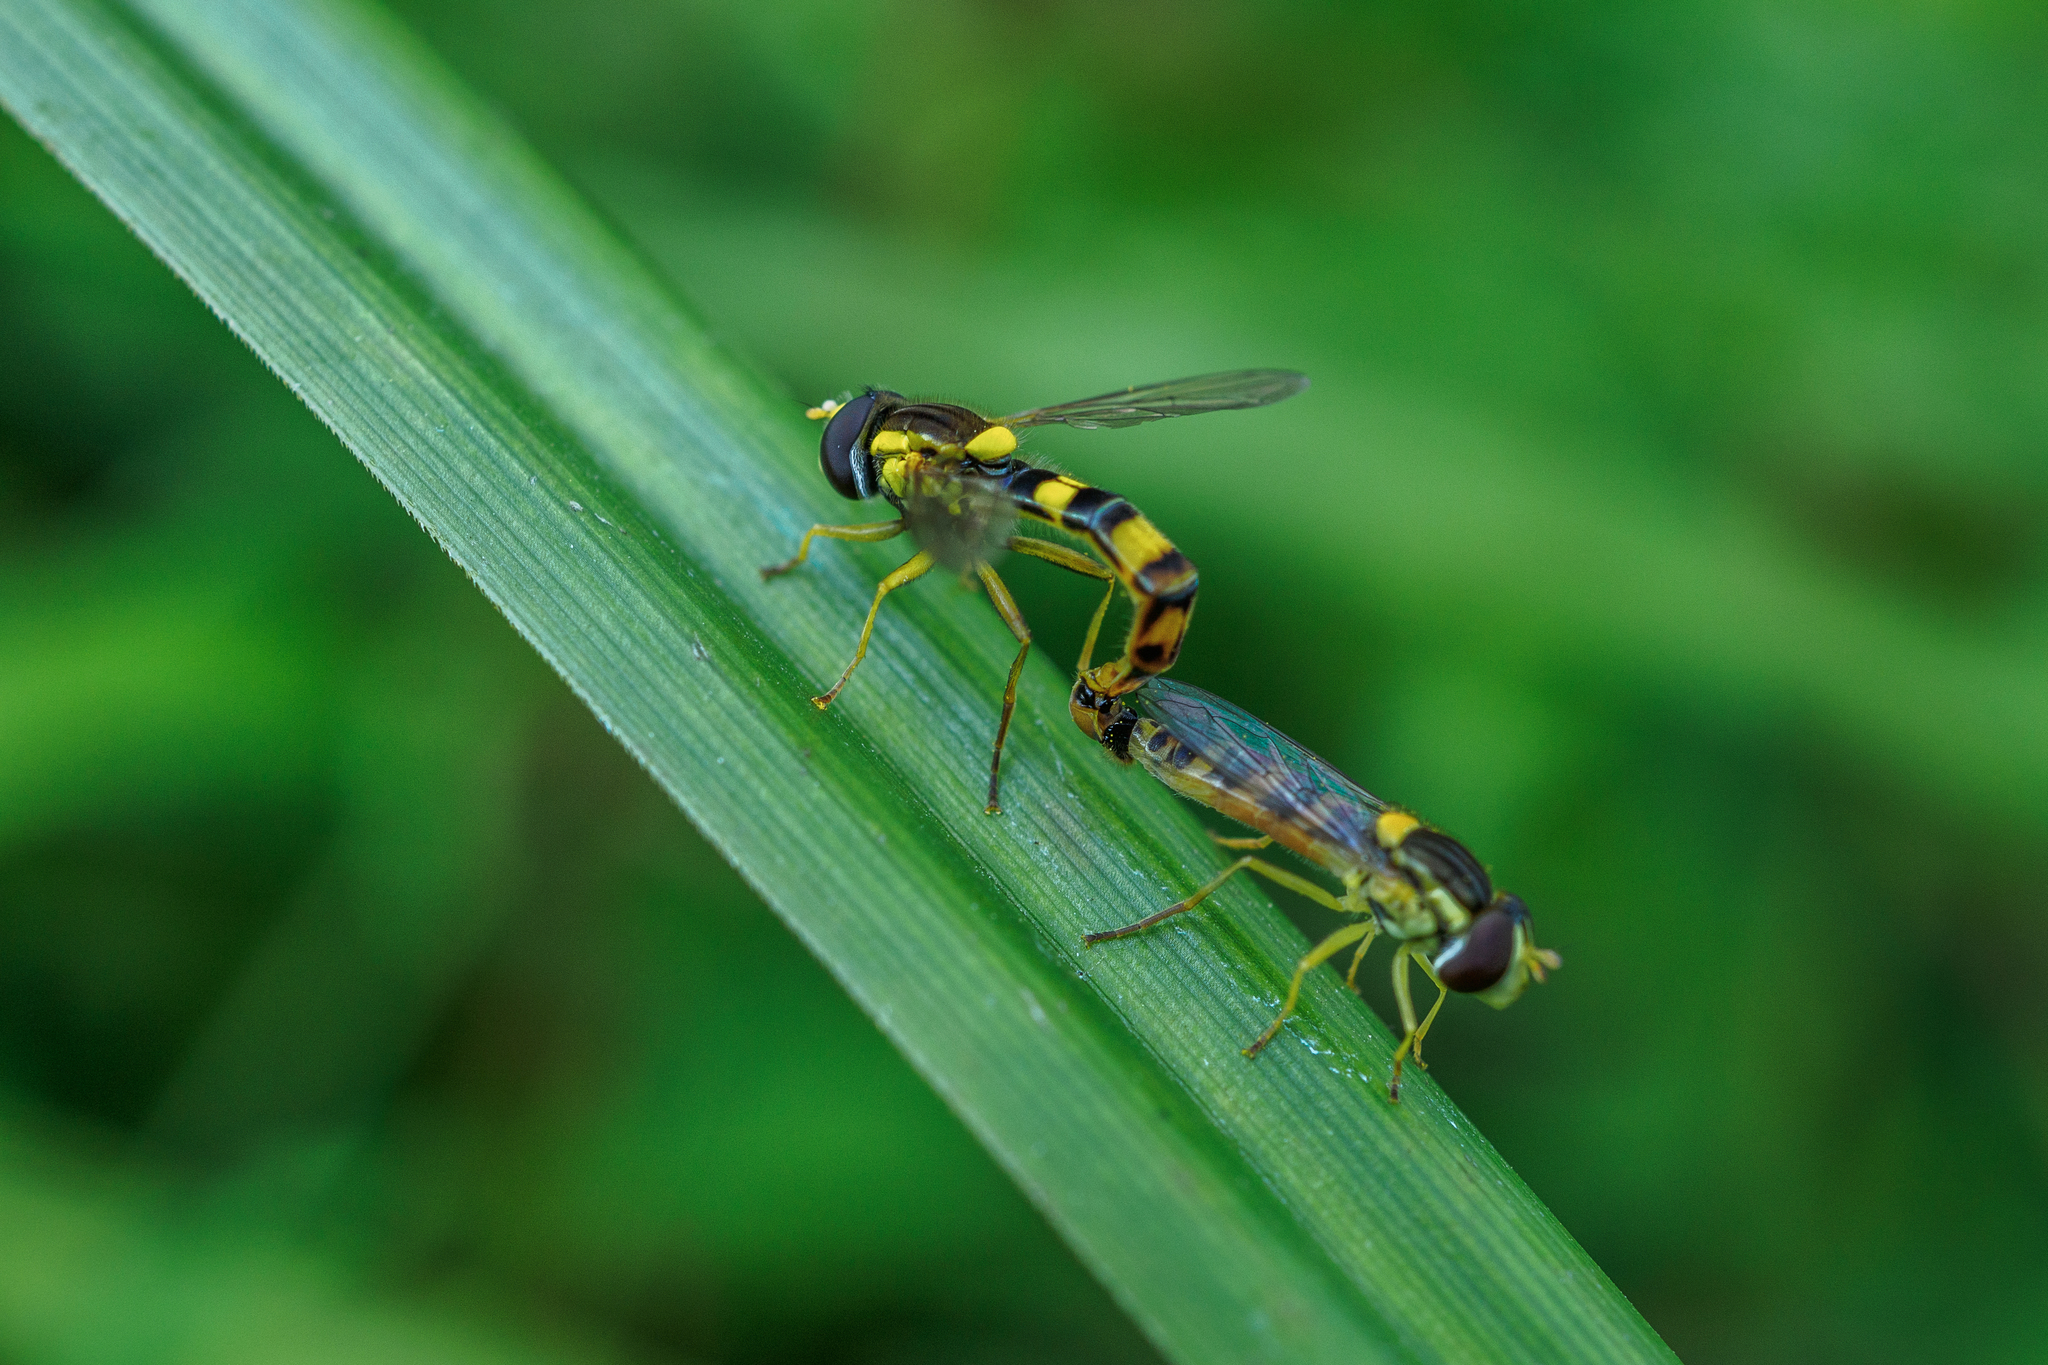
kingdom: Animalia
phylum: Arthropoda
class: Insecta
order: Diptera
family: Syrphidae
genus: Sphaerophoria
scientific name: Sphaerophoria scripta
